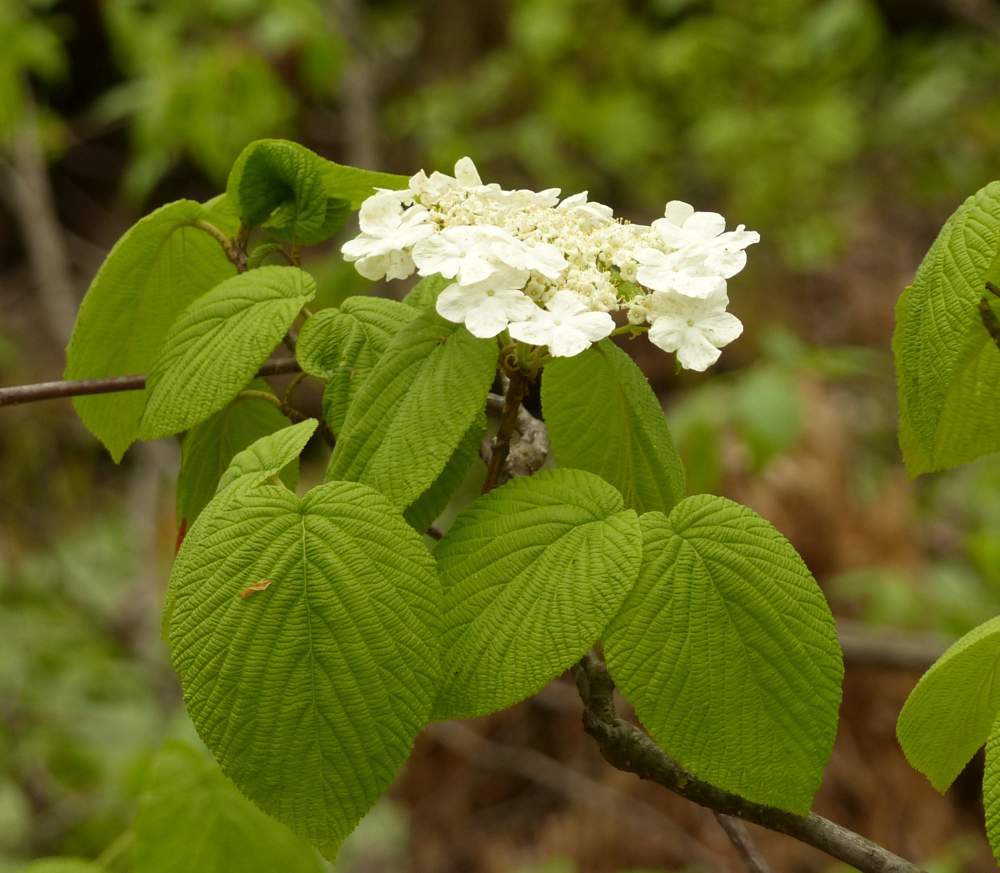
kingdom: Plantae
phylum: Tracheophyta
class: Magnoliopsida
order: Dipsacales
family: Viburnaceae
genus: Viburnum
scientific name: Viburnum lantanoides
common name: Hobblebush
